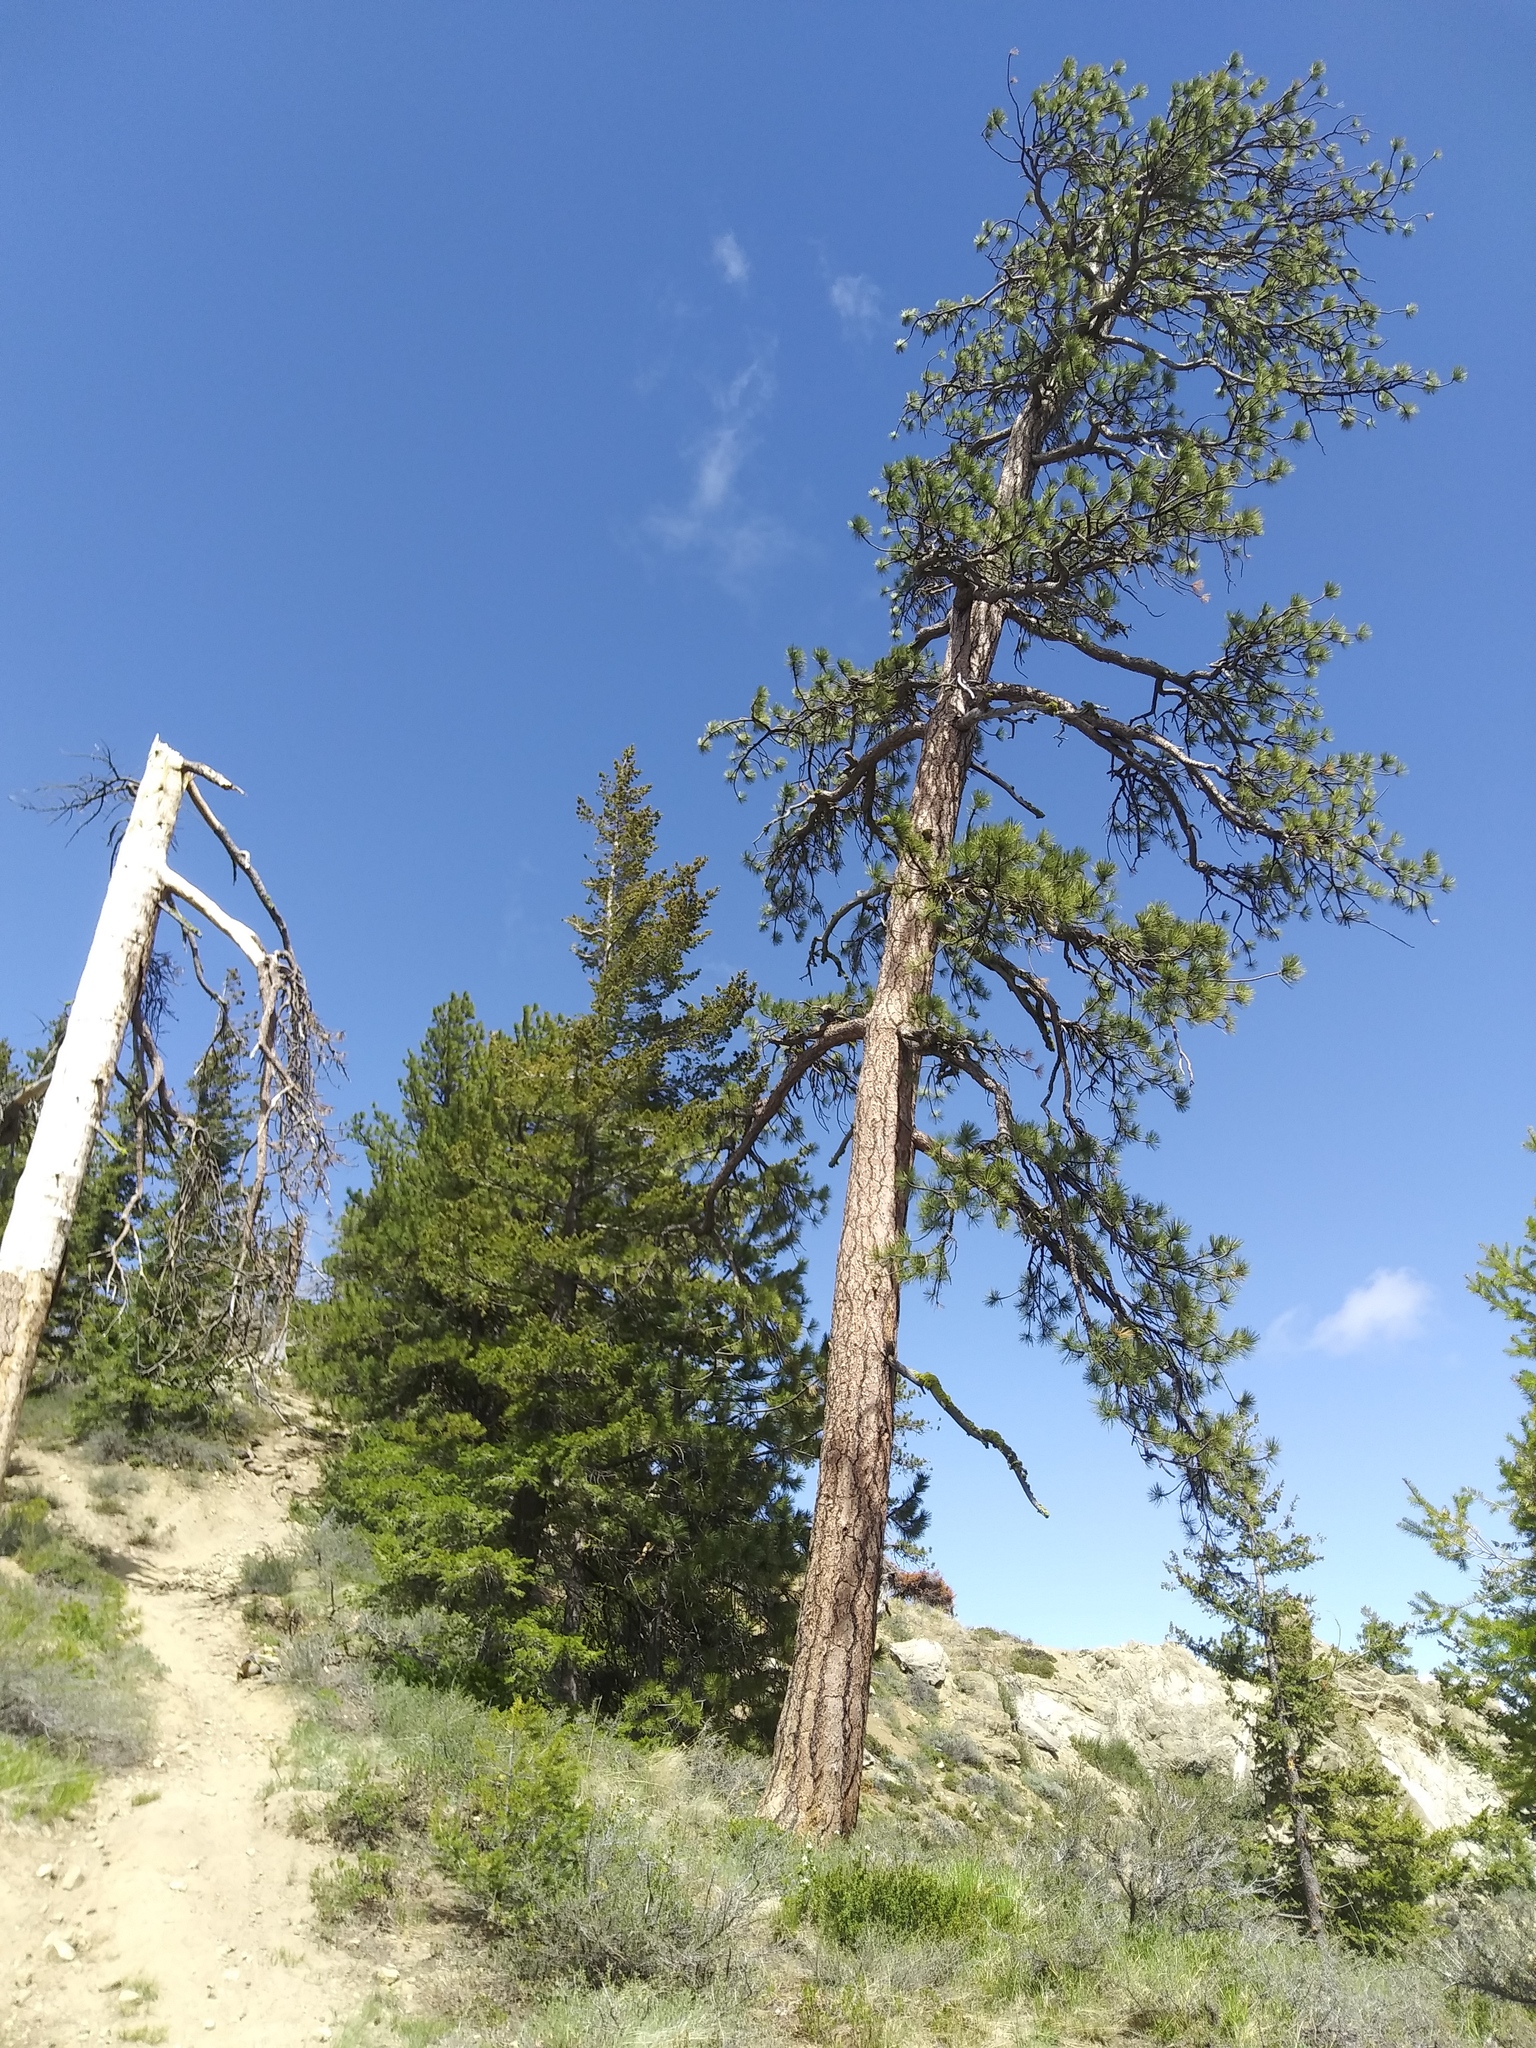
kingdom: Plantae
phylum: Tracheophyta
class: Pinopsida
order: Pinales
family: Pinaceae
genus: Pinus
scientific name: Pinus ponderosa
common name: Western yellow-pine
